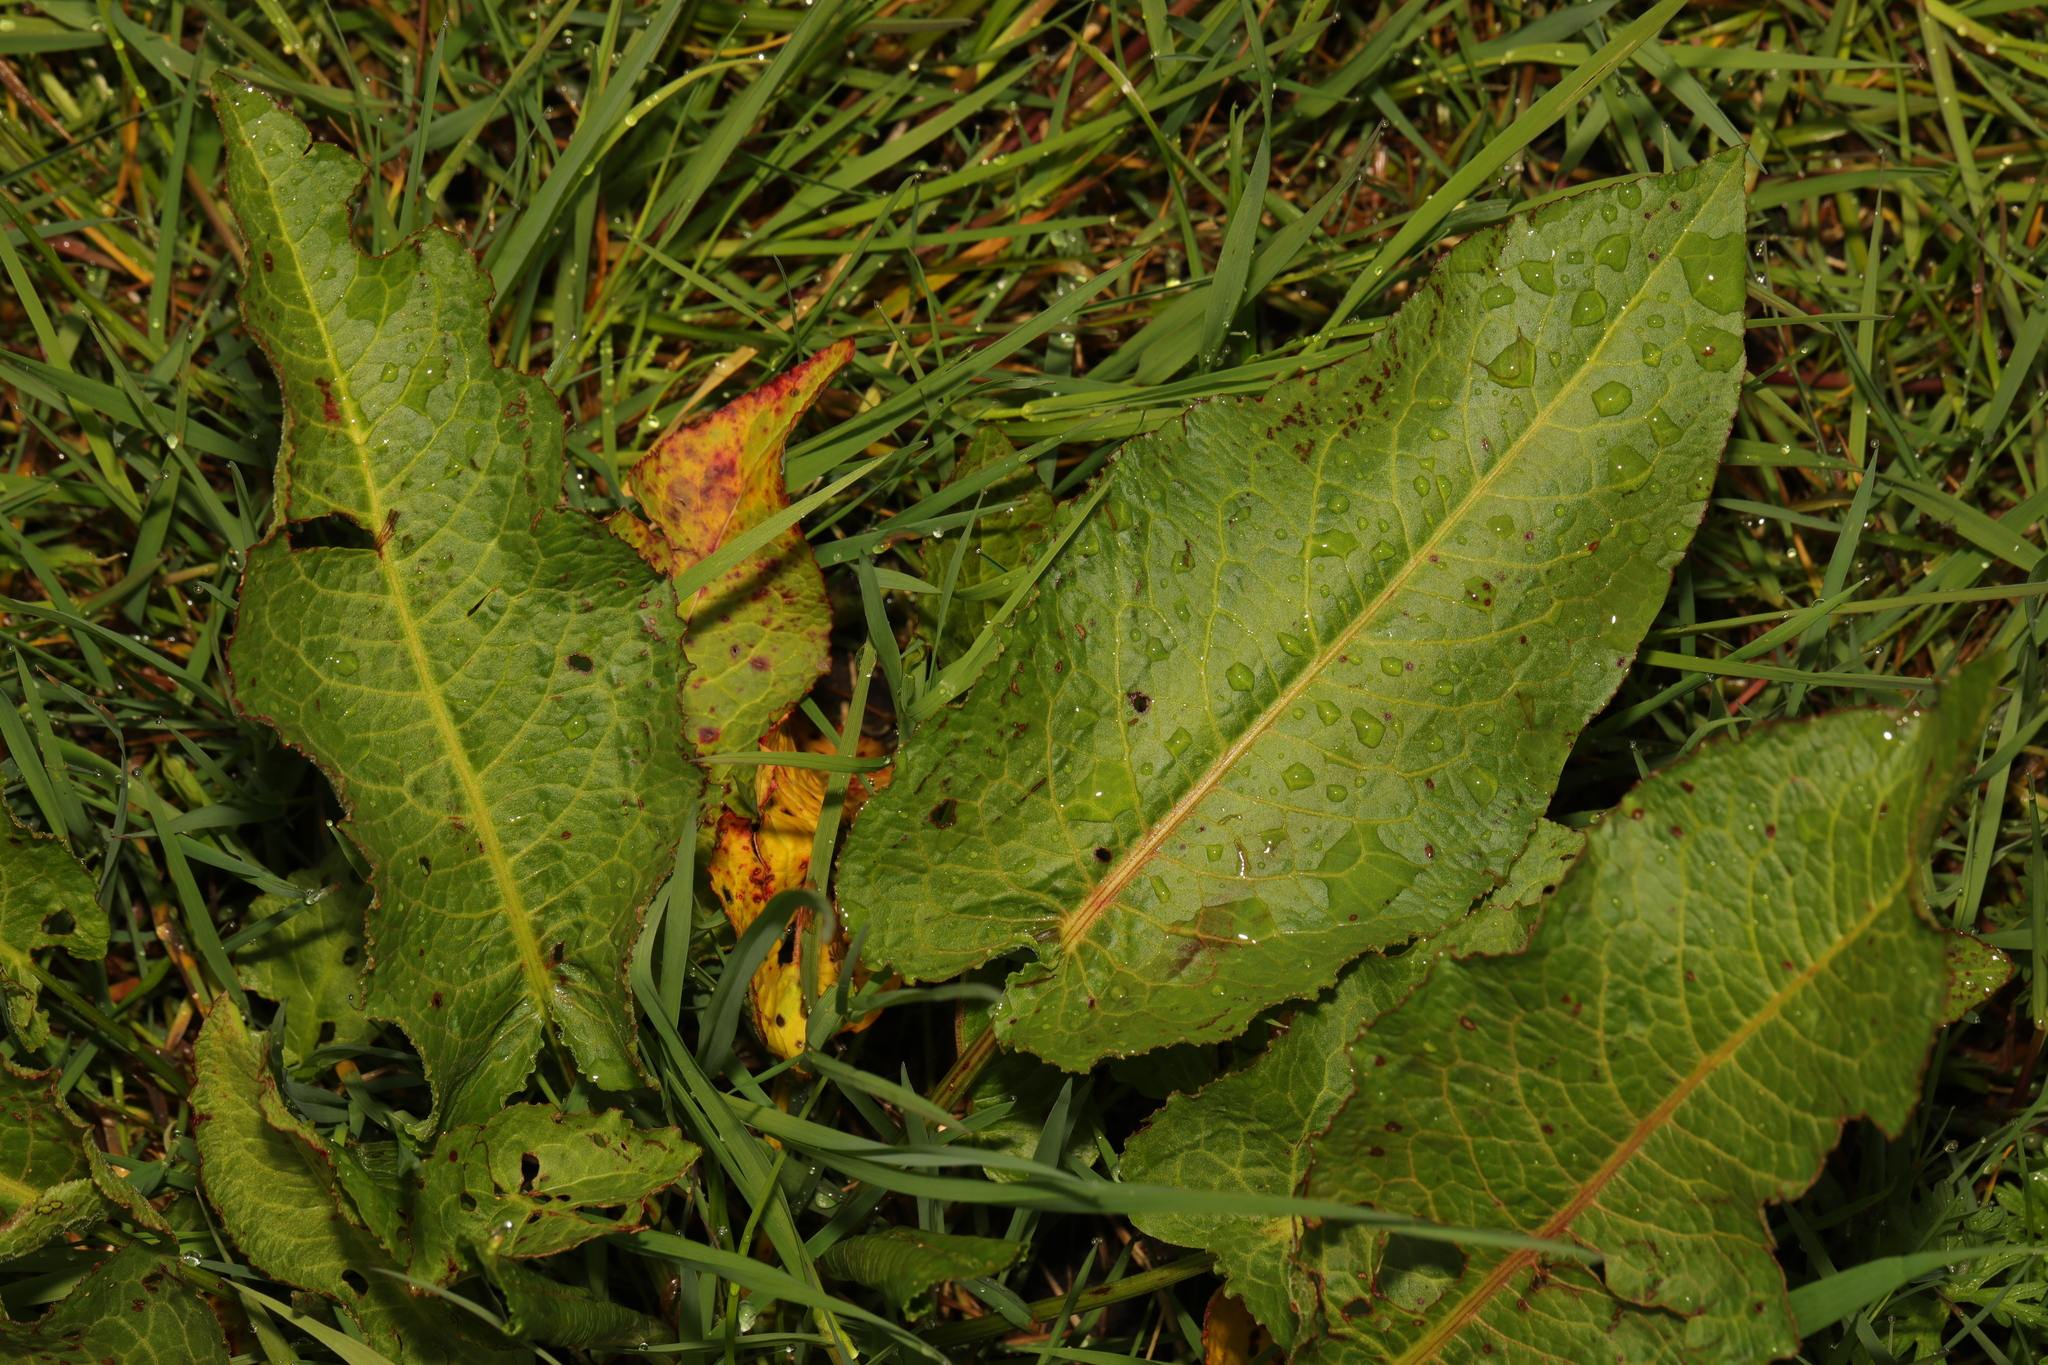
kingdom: Plantae
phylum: Tracheophyta
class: Magnoliopsida
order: Caryophyllales
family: Polygonaceae
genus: Rumex
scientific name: Rumex obtusifolius
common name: Bitter dock
